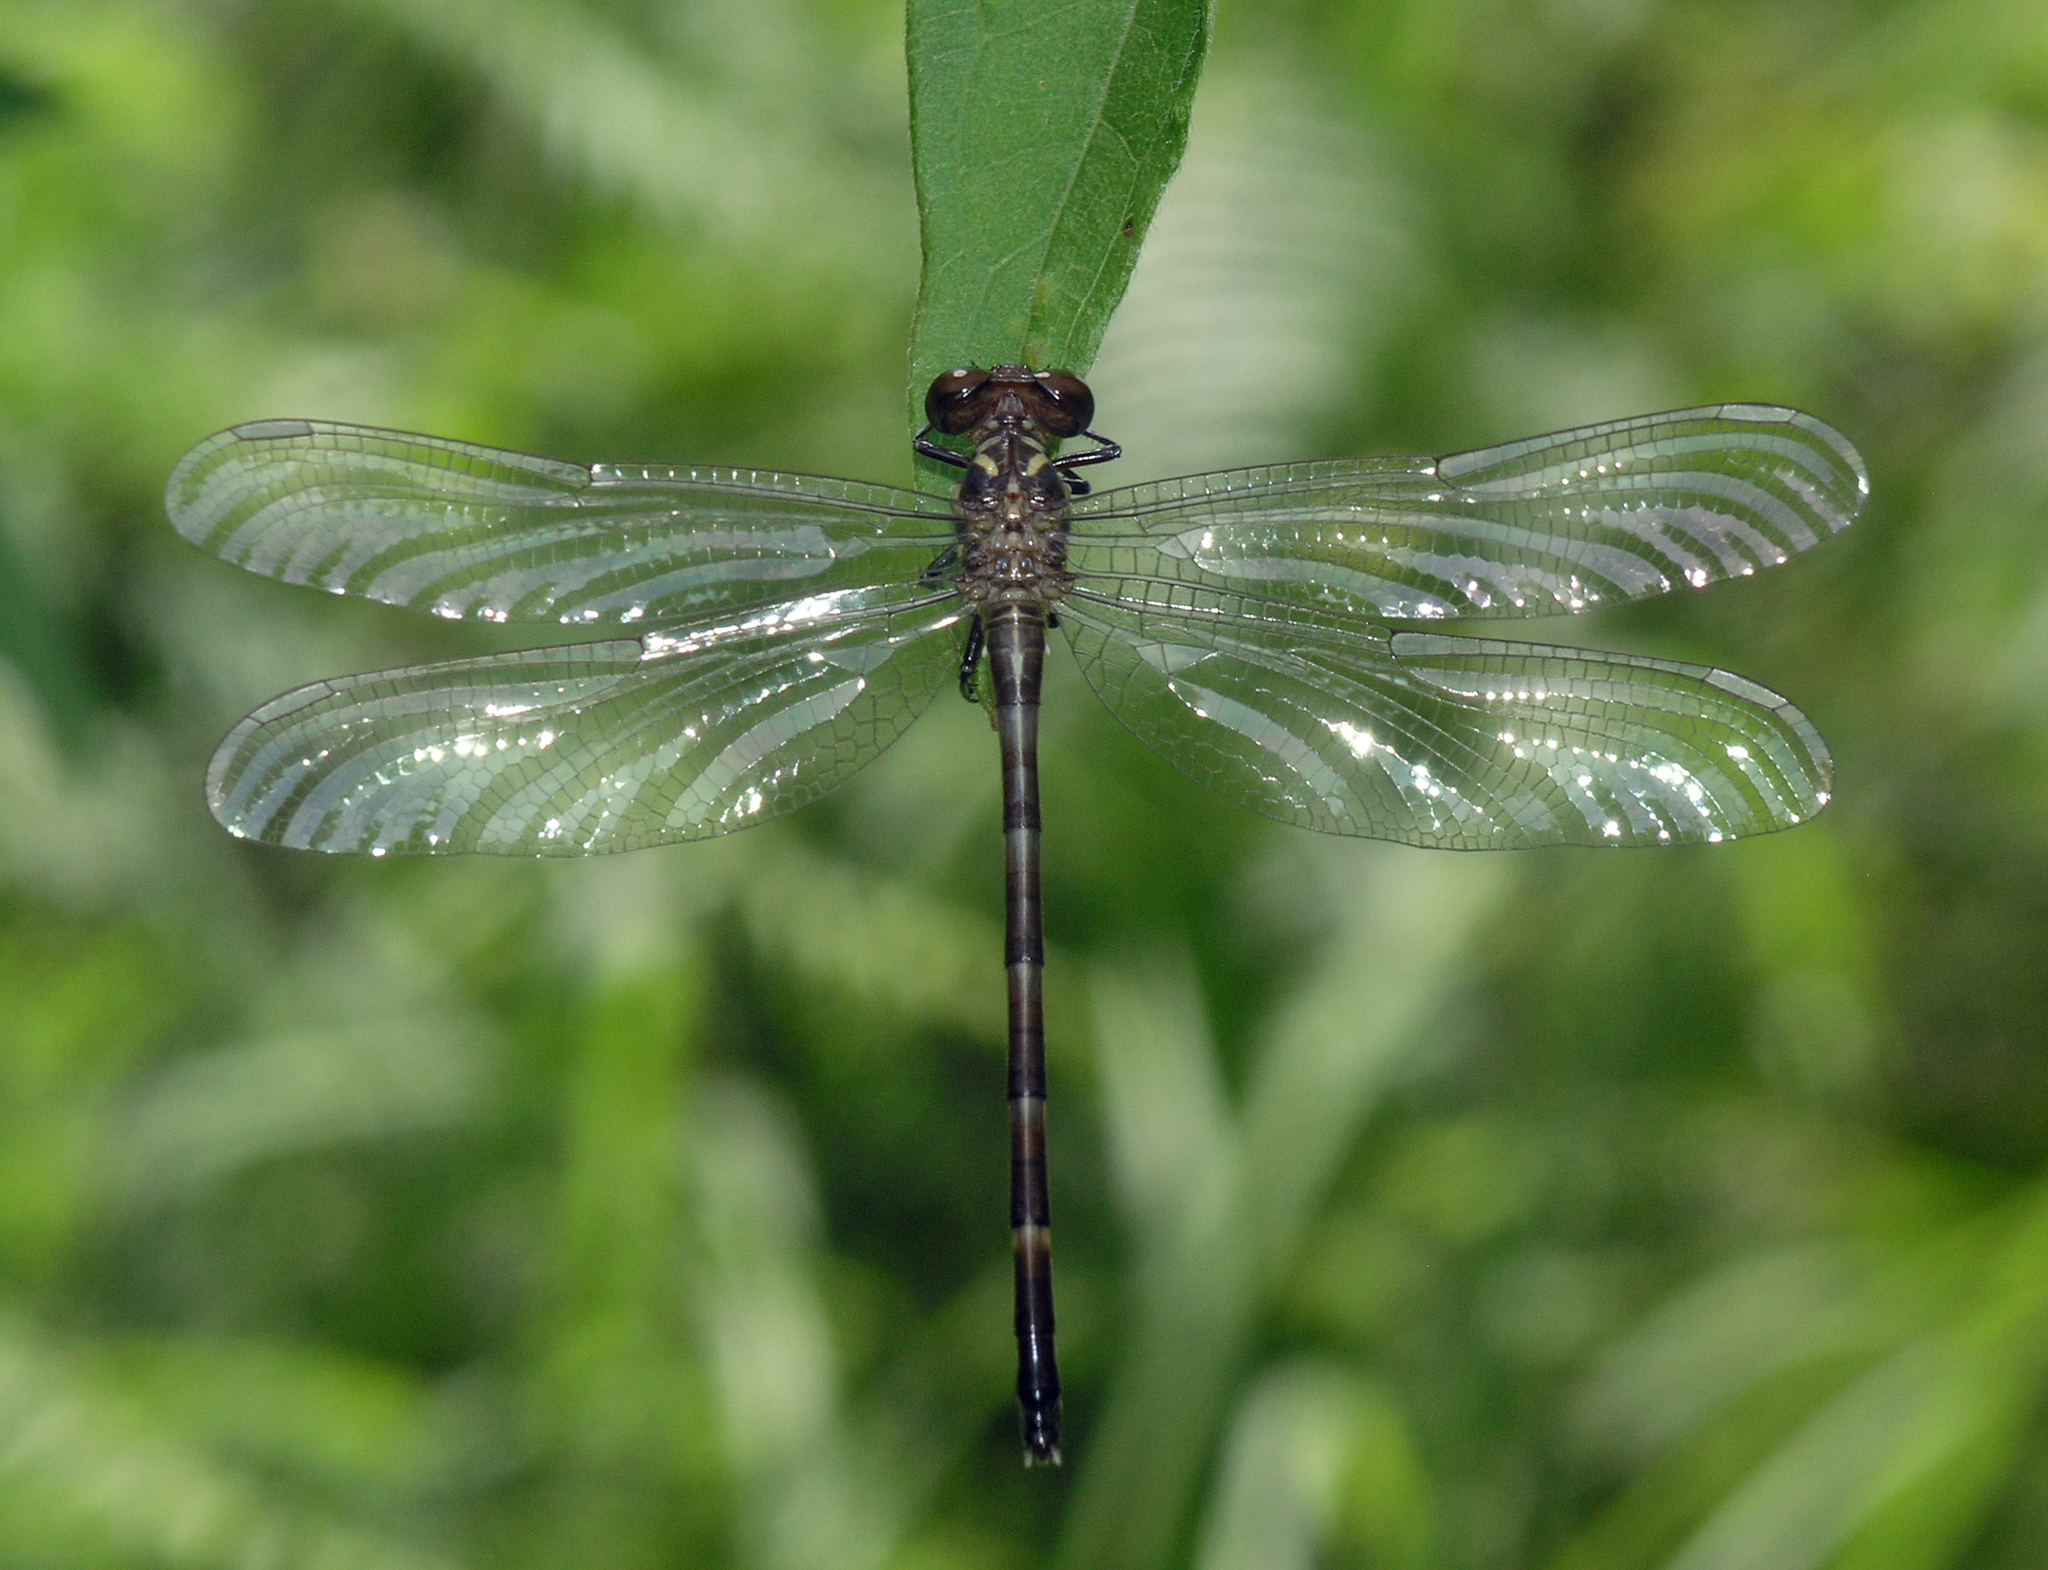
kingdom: Animalia
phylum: Arthropoda
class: Insecta
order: Odonata
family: Gomphidae
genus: Heliogomphus
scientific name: Heliogomphus chaoi
